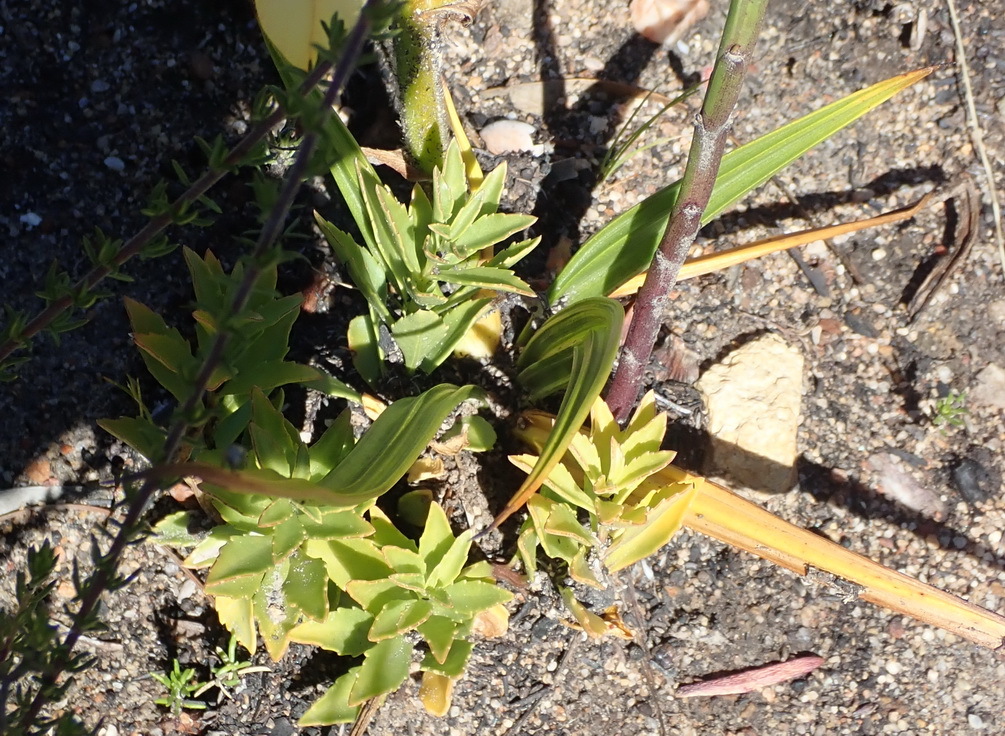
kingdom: Plantae
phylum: Tracheophyta
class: Liliopsida
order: Commelinales
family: Haemodoraceae
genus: Wachendorfia
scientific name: Wachendorfia paniculata
